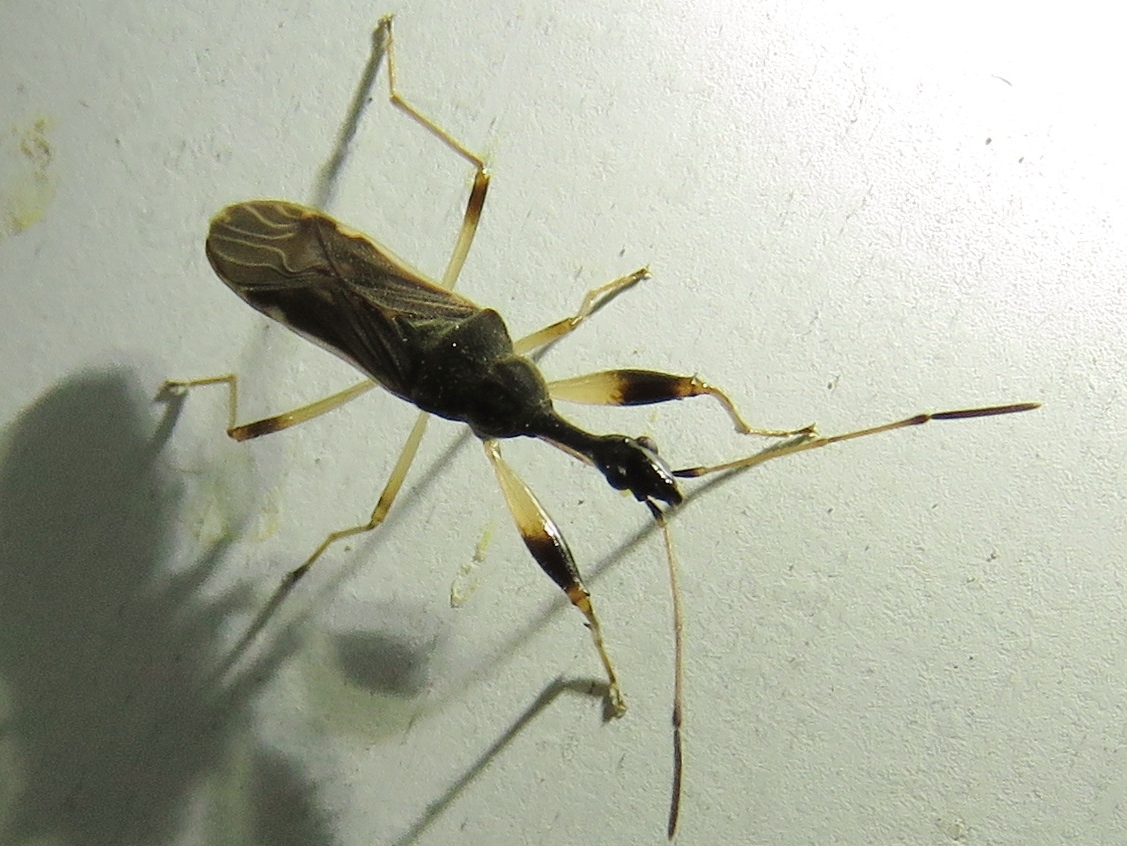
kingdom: Animalia
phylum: Arthropoda
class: Insecta
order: Hemiptera
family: Rhyparochromidae
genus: Myodocha
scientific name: Myodocha serripes
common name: Long-necked seed bug
